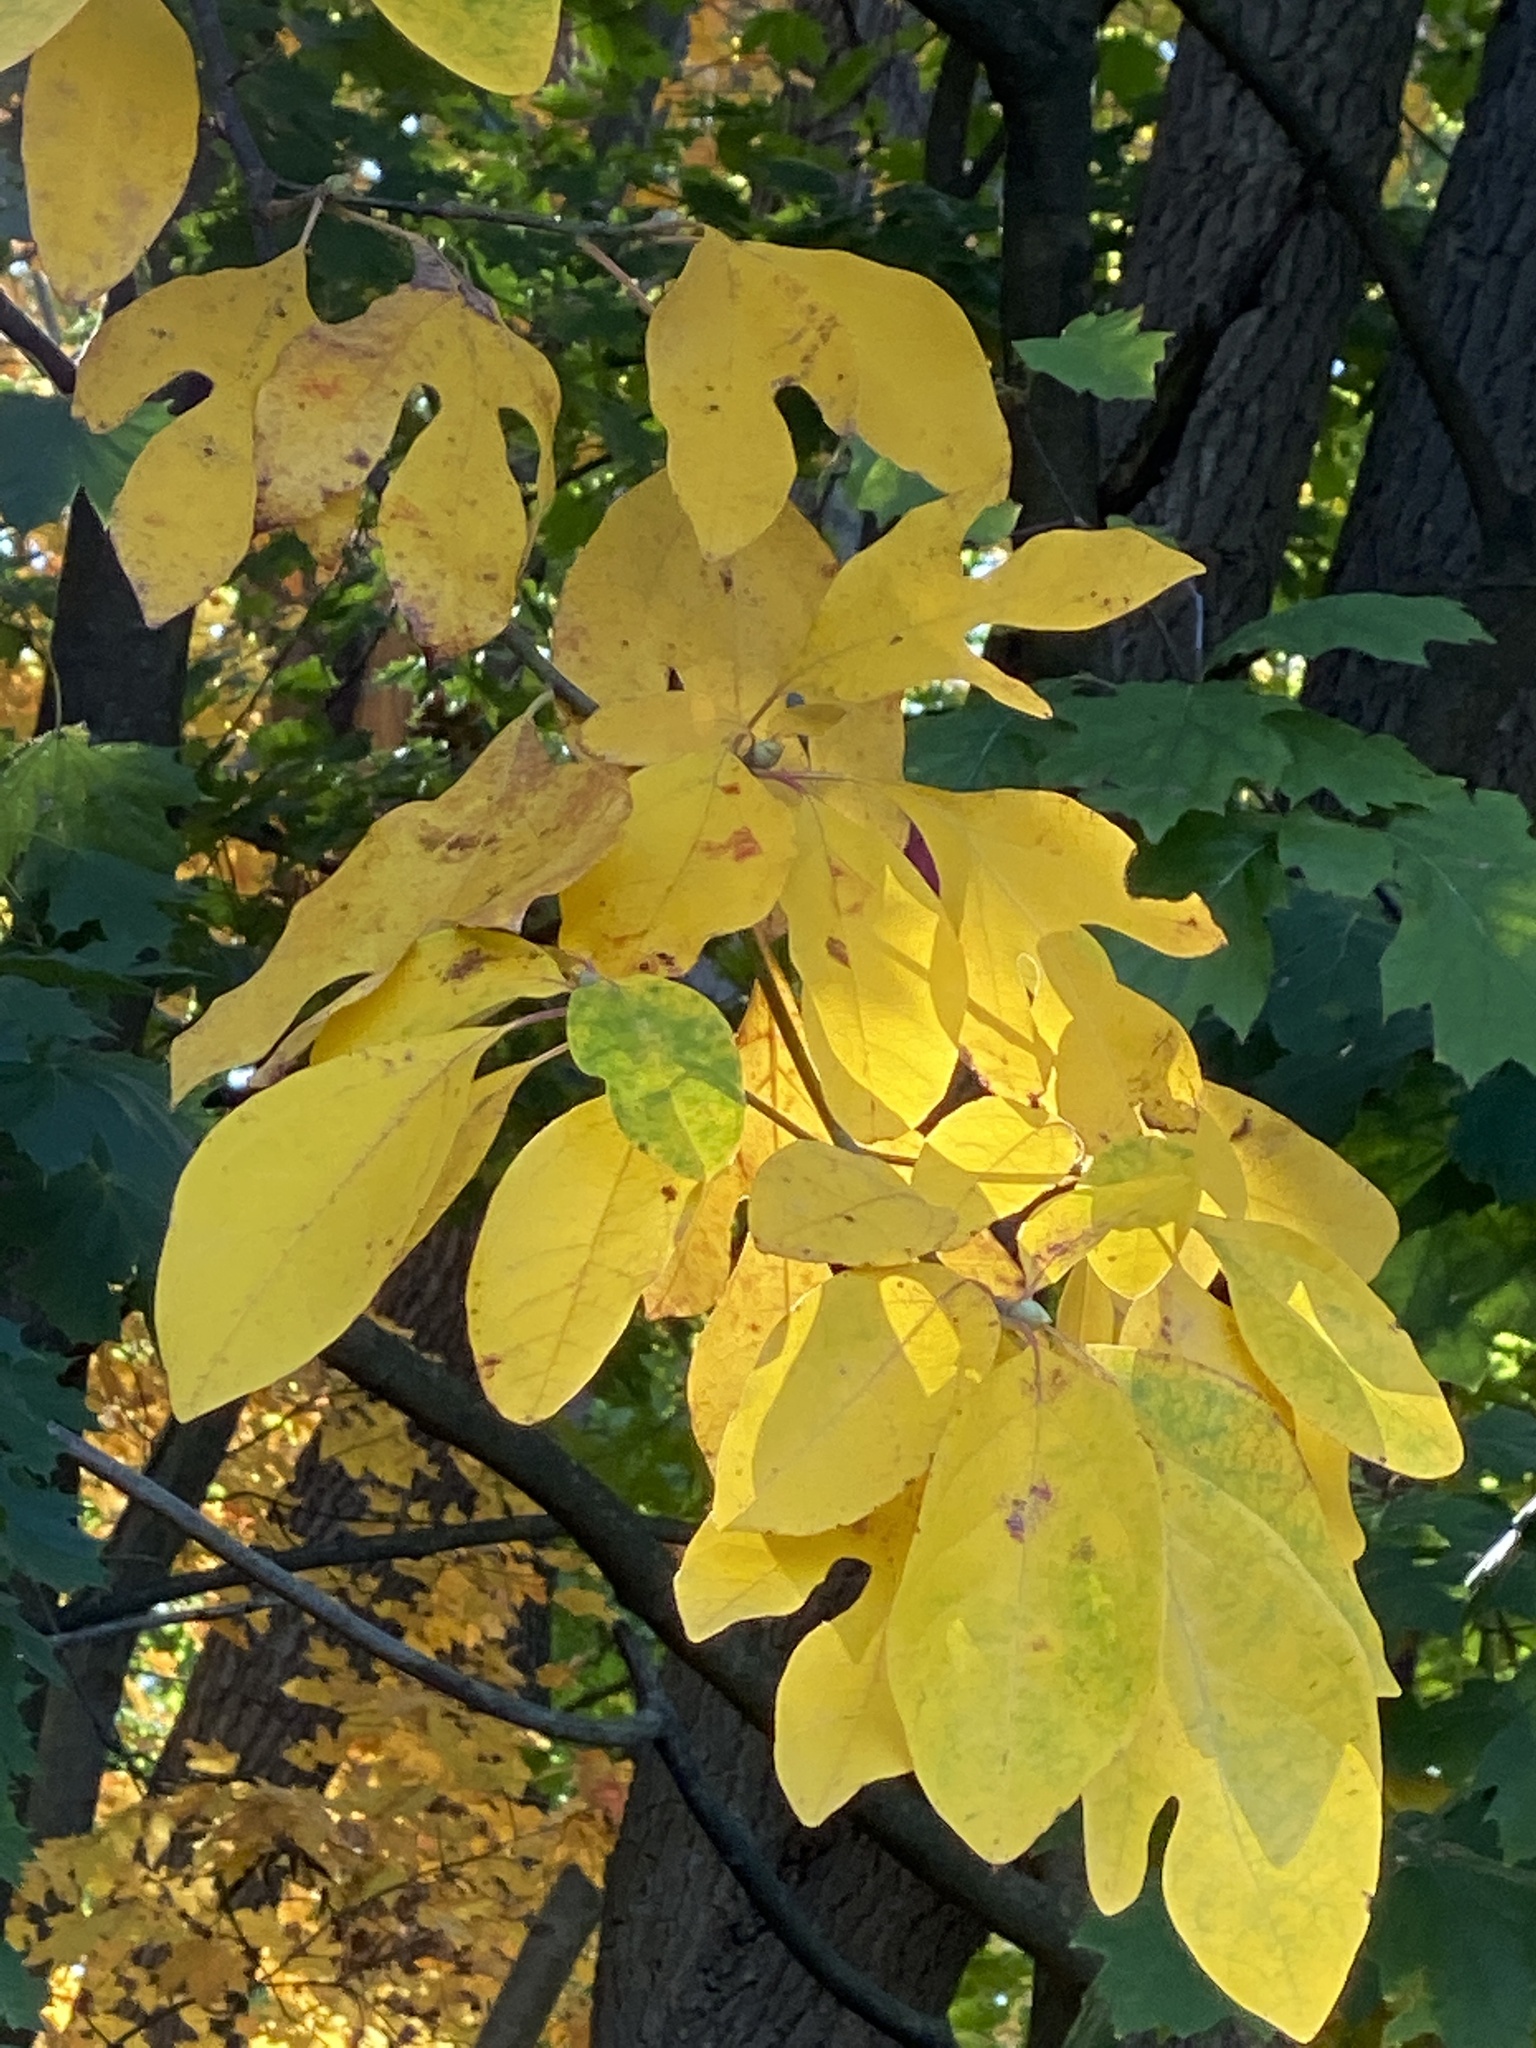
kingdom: Plantae
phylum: Tracheophyta
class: Magnoliopsida
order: Laurales
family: Lauraceae
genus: Sassafras
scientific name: Sassafras albidum
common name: Sassafras
